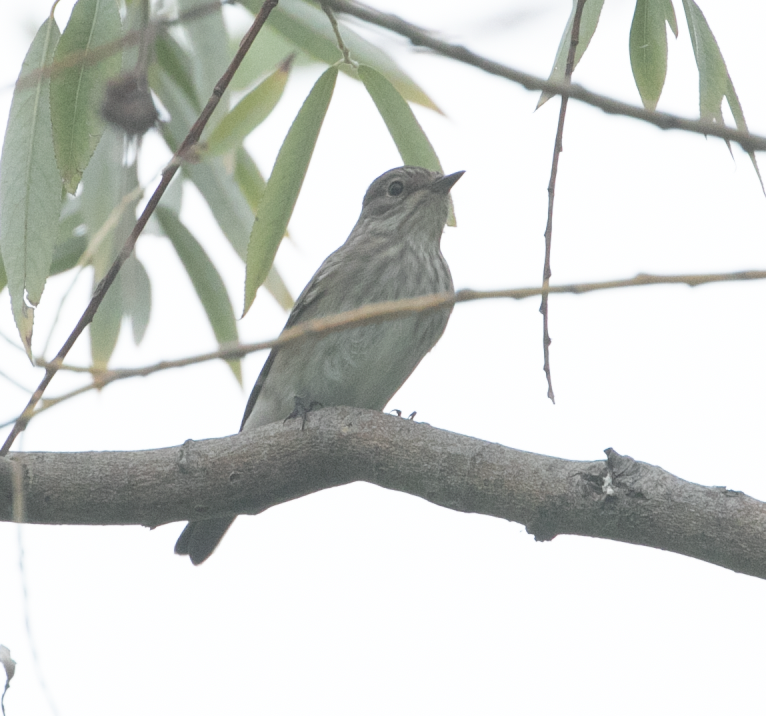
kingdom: Animalia
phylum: Chordata
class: Aves
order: Passeriformes
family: Muscicapidae
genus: Muscicapa
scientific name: Muscicapa striata
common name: Spotted flycatcher
